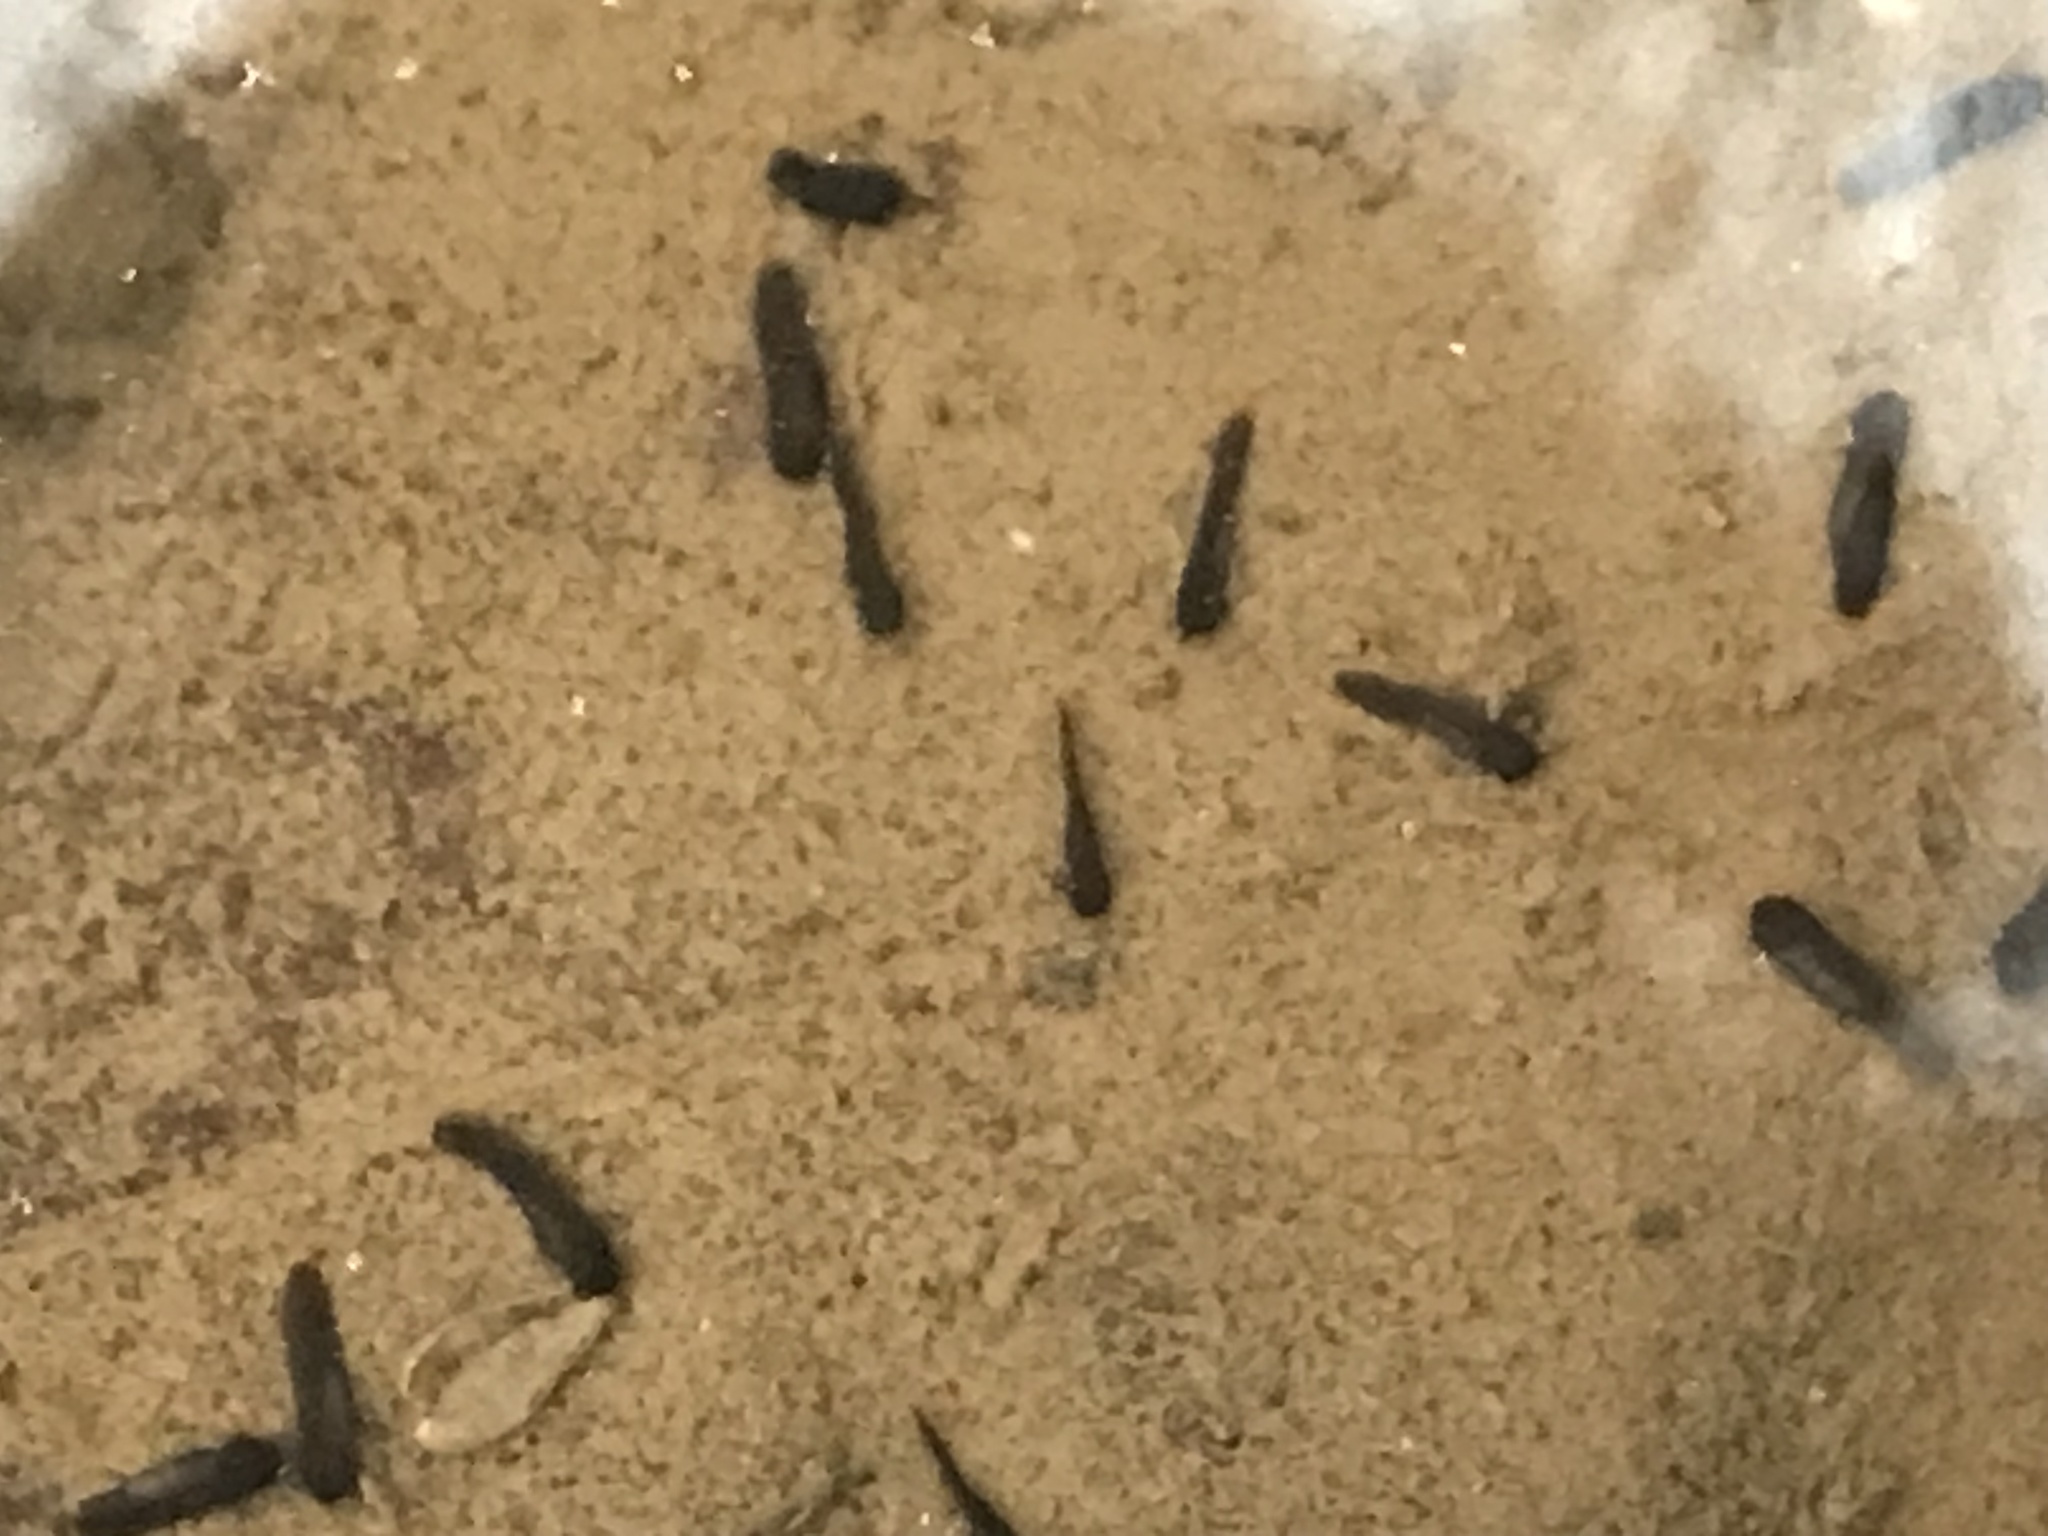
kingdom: Animalia
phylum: Chordata
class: Amphibia
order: Anura
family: Bufonidae
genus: Anaxyrus
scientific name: Anaxyrus americanus
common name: American toad
